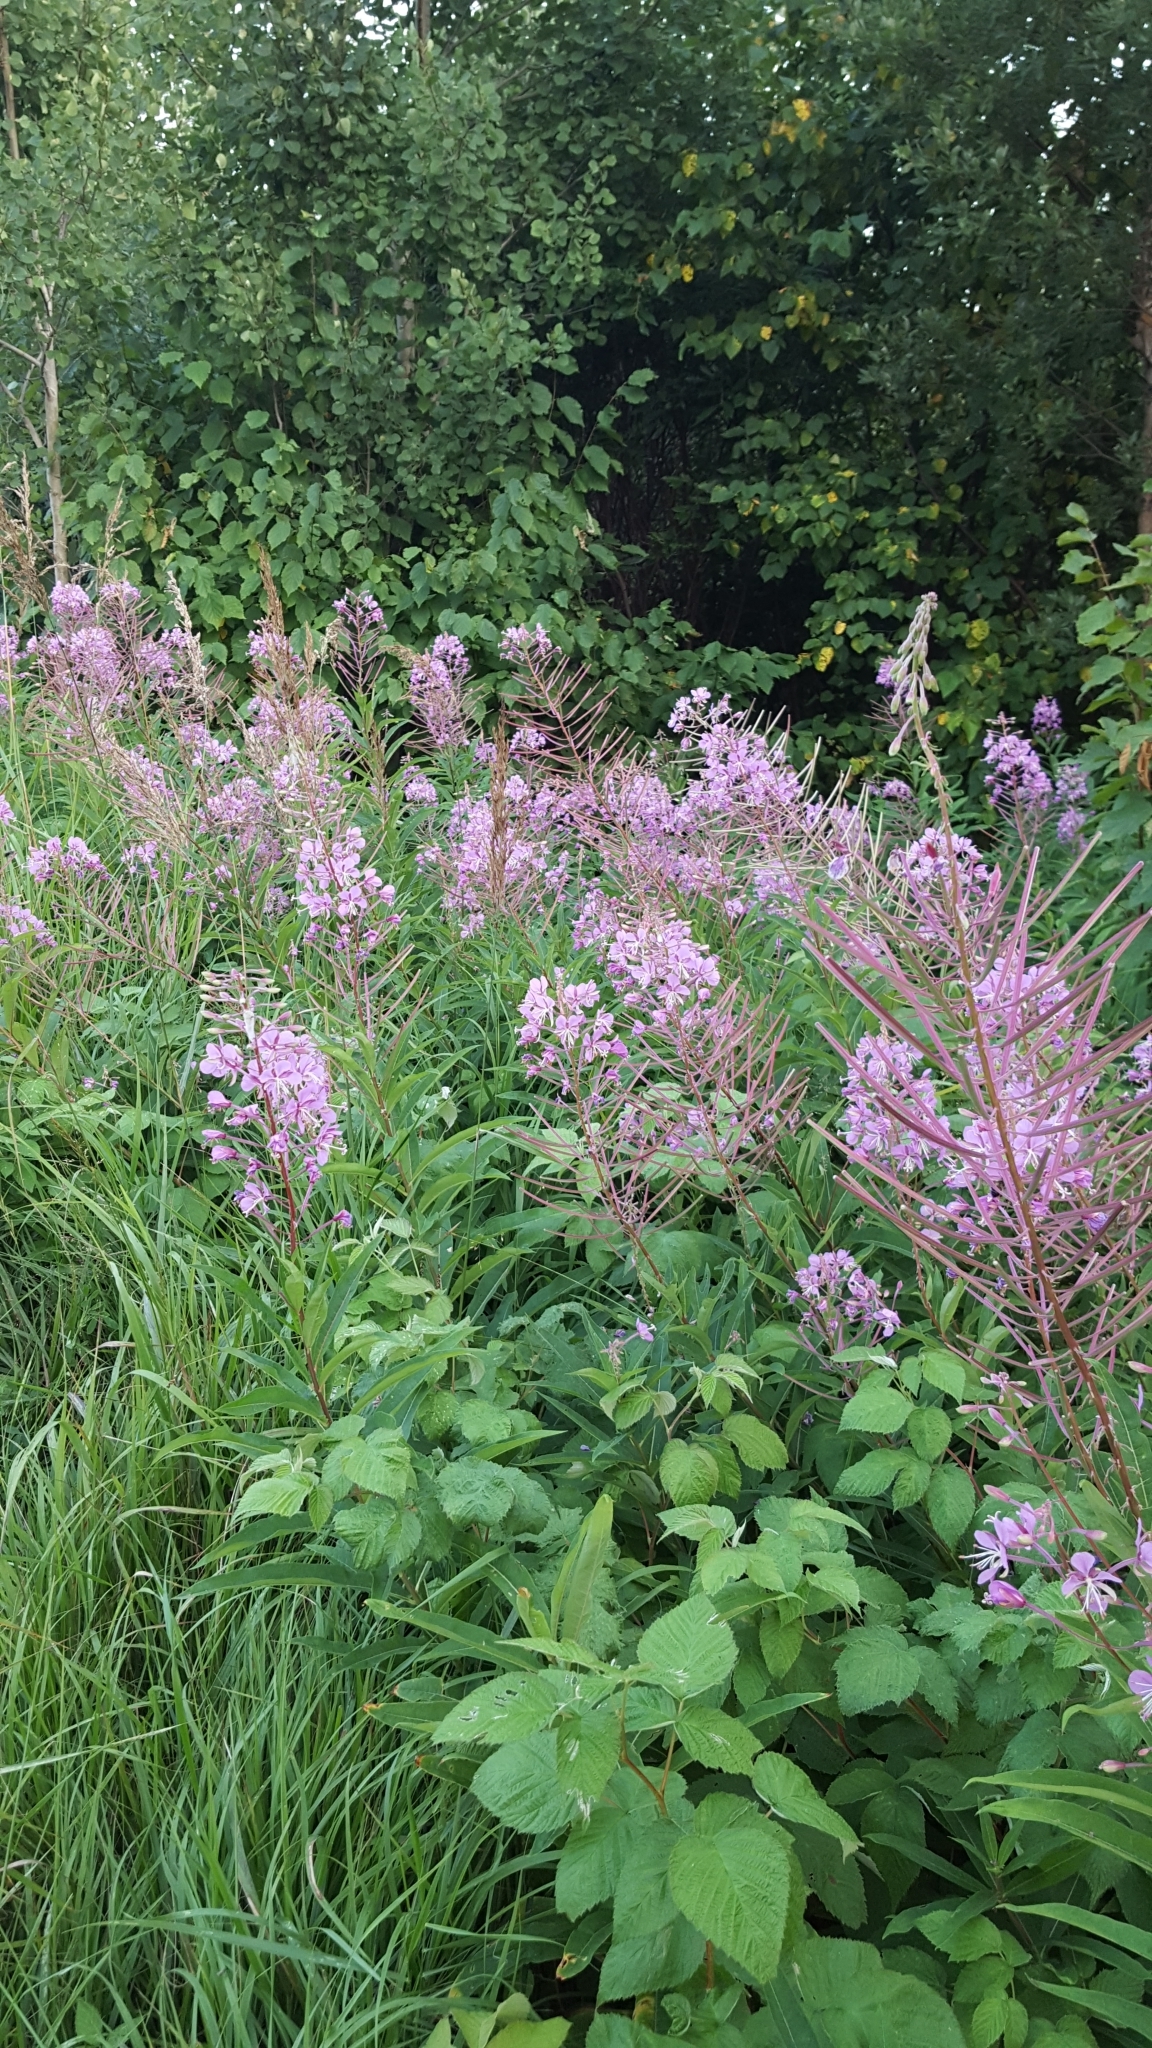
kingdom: Plantae
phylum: Tracheophyta
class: Magnoliopsida
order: Myrtales
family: Onagraceae
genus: Chamaenerion
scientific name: Chamaenerion angustifolium
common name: Fireweed
